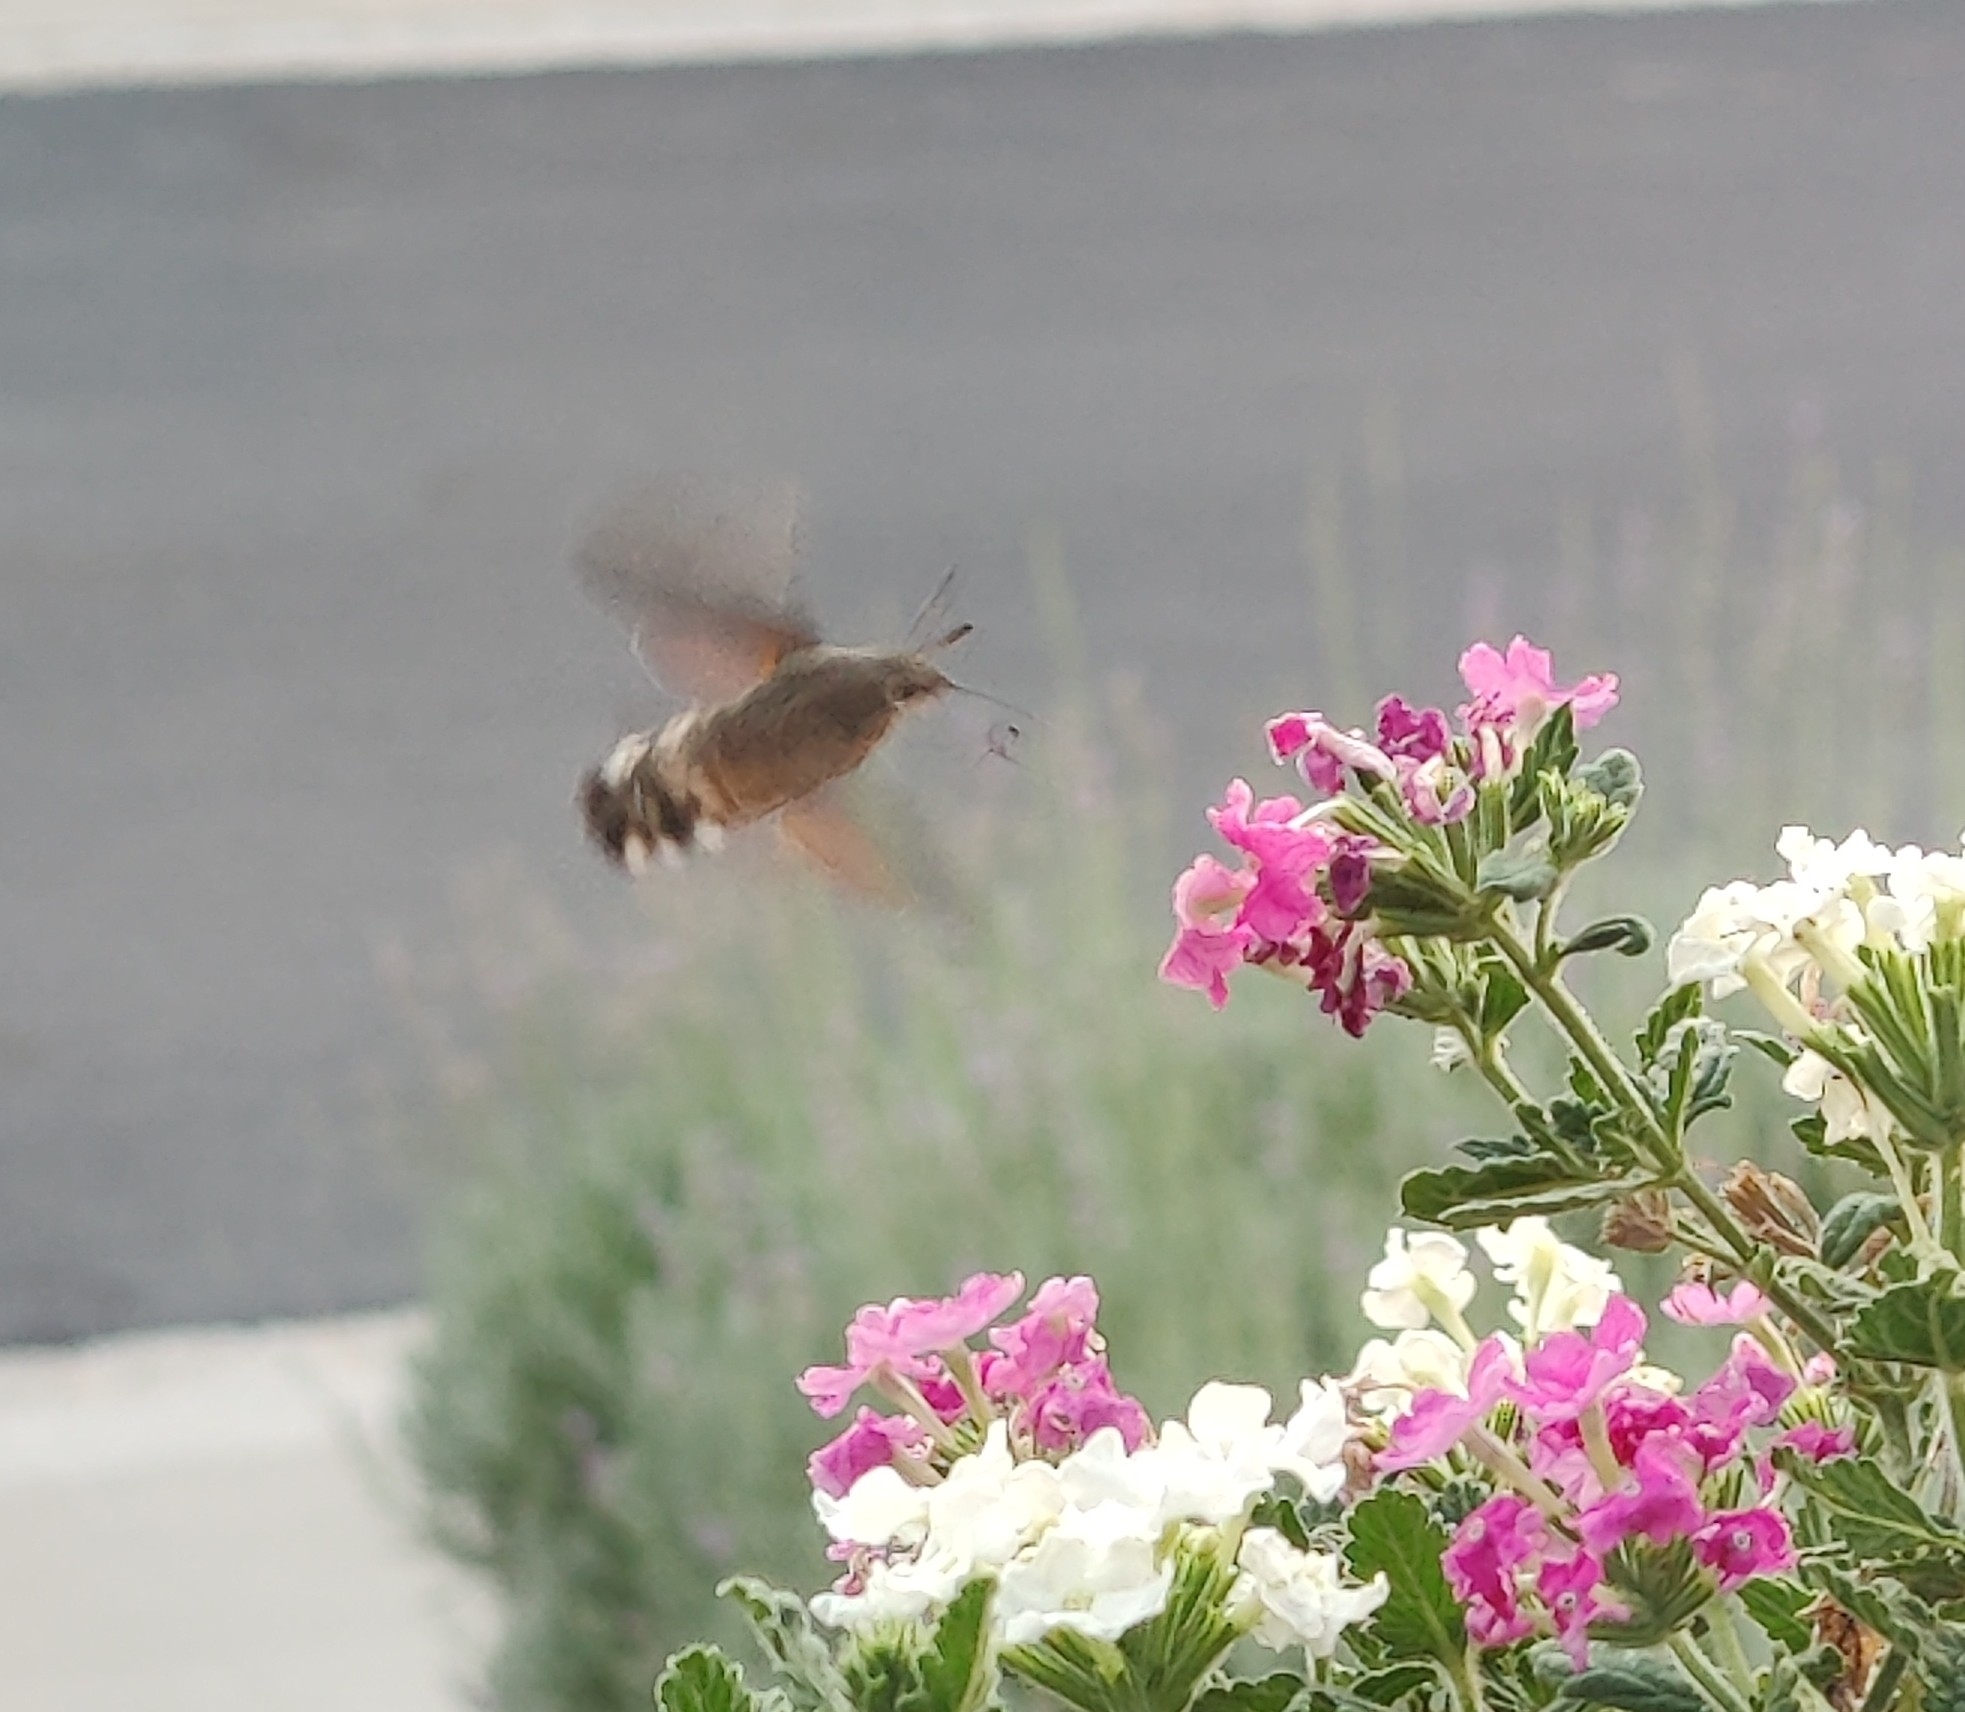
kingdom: Animalia
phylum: Arthropoda
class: Insecta
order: Lepidoptera
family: Sphingidae
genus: Macroglossum
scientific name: Macroglossum stellatarum
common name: Humming-bird hawk-moth
